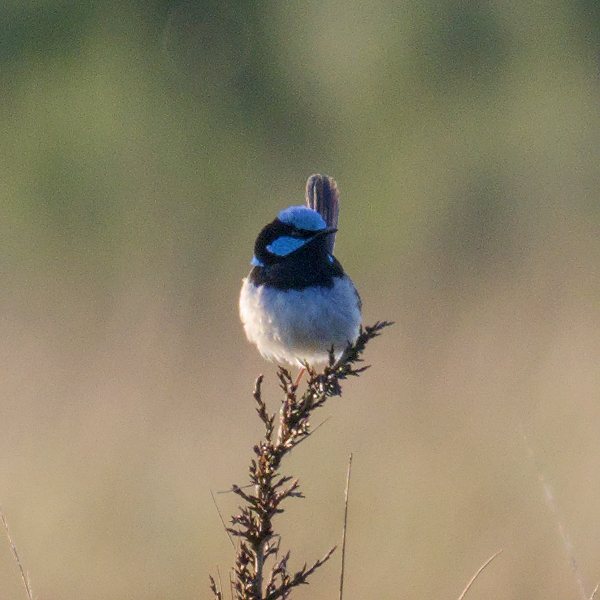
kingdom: Animalia
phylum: Chordata
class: Aves
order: Passeriformes
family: Maluridae
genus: Malurus
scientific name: Malurus cyaneus
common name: Superb fairywren
